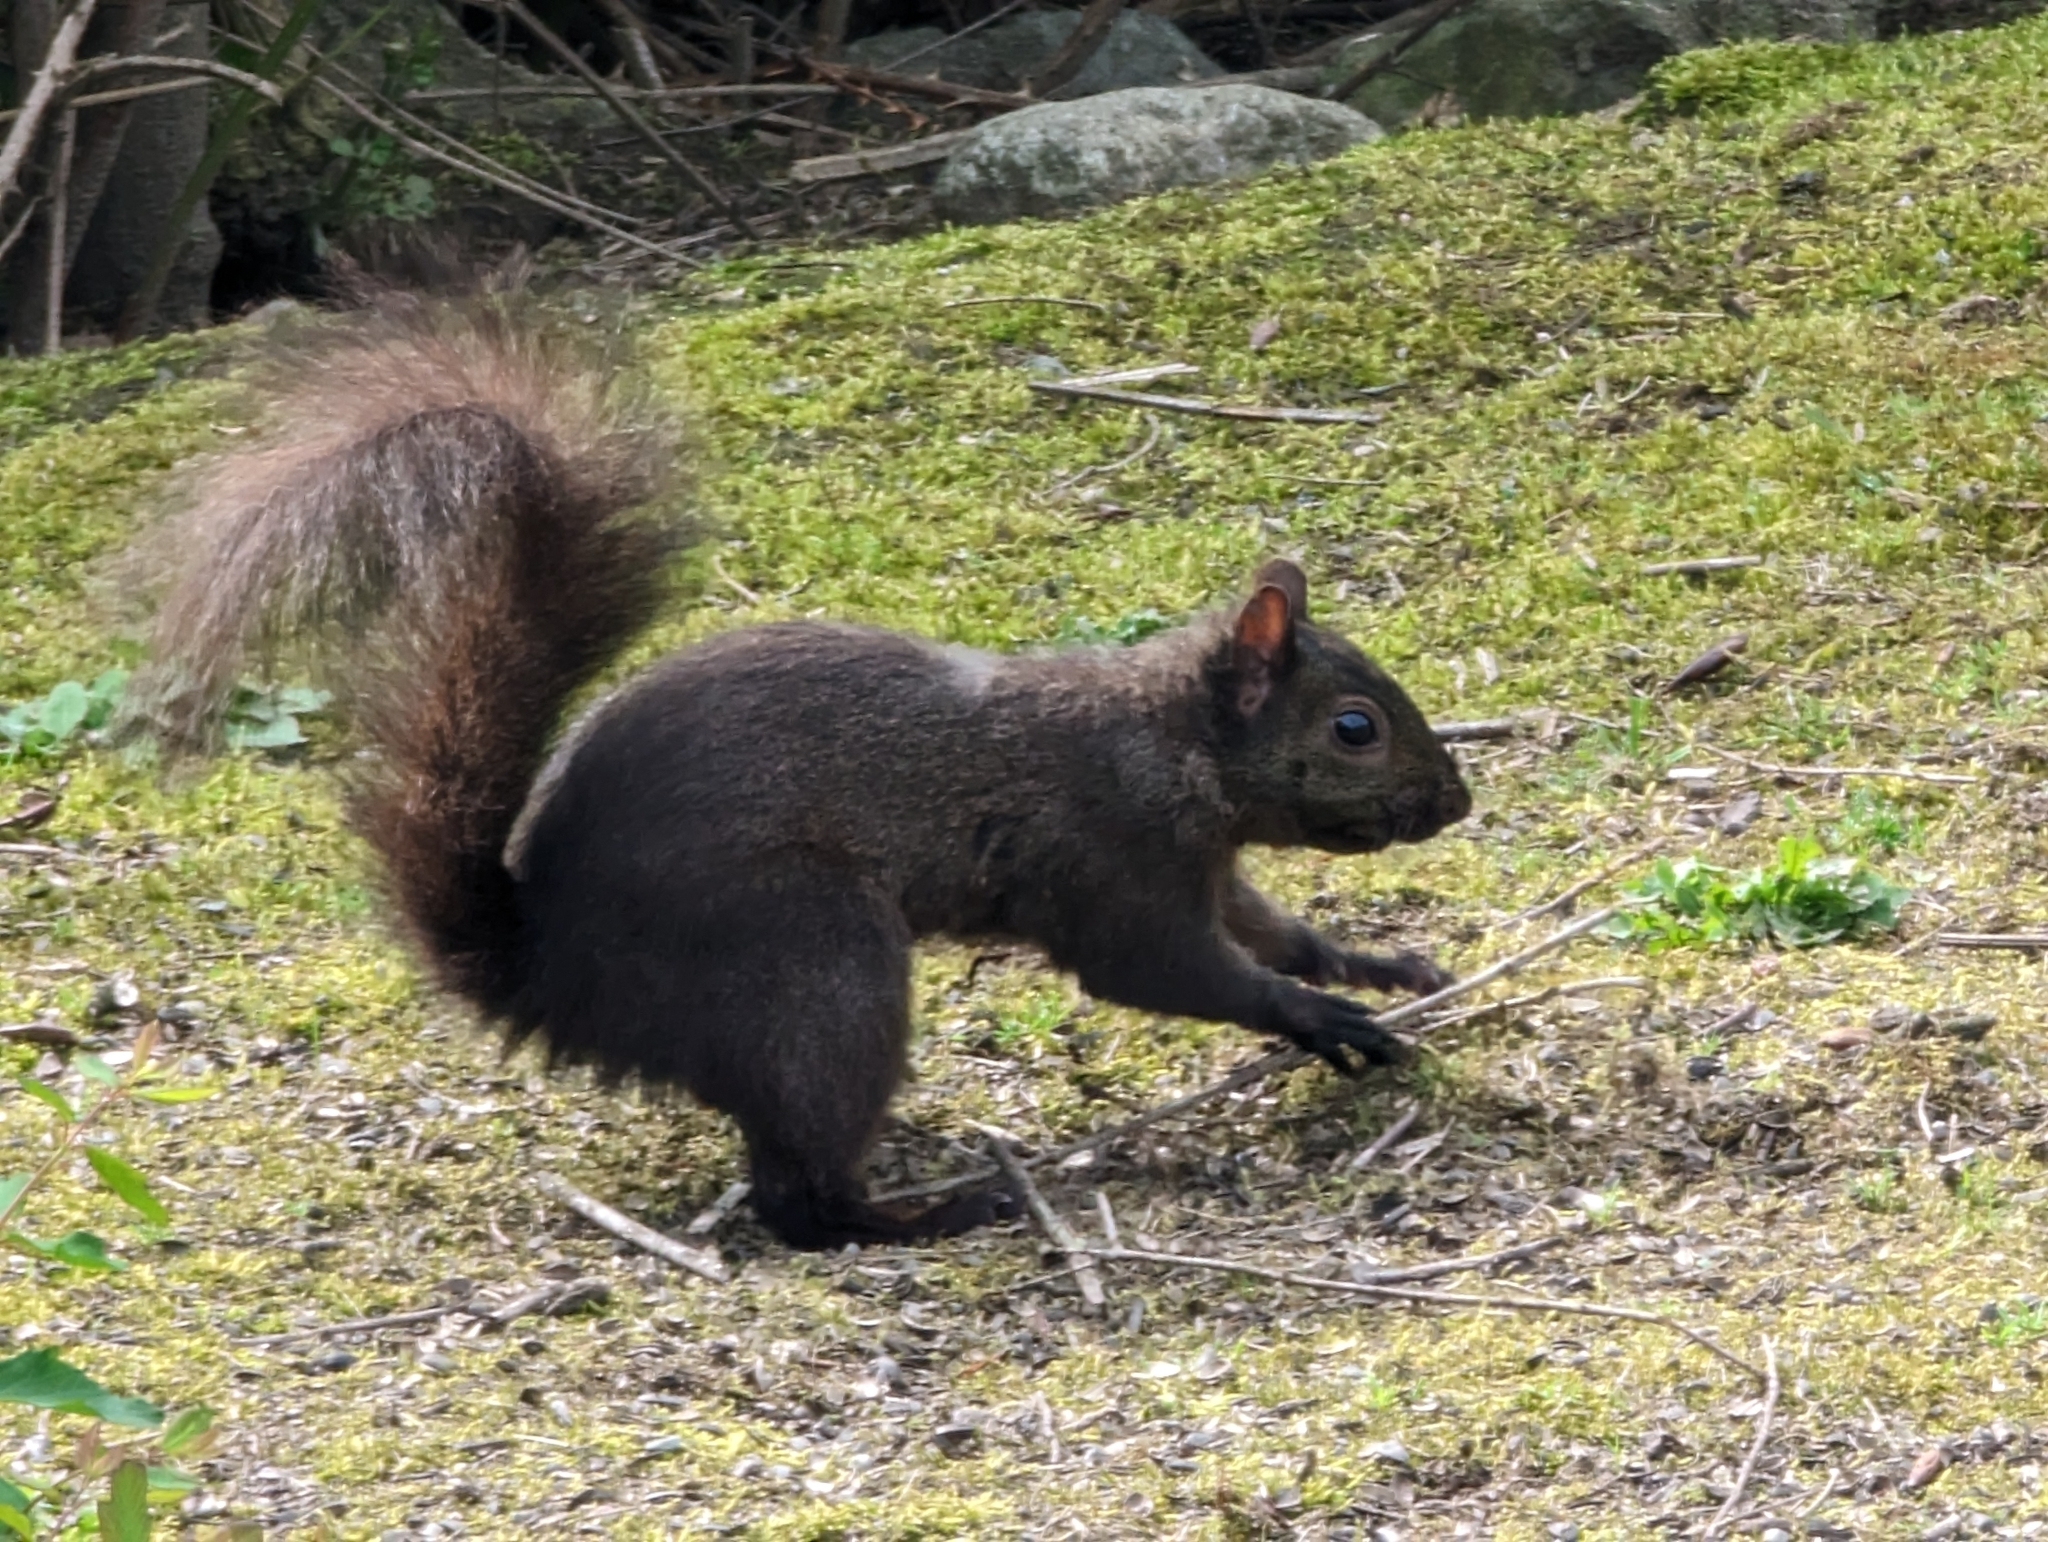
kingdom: Animalia
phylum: Chordata
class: Mammalia
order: Rodentia
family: Sciuridae
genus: Sciurus
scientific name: Sciurus carolinensis
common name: Eastern gray squirrel
